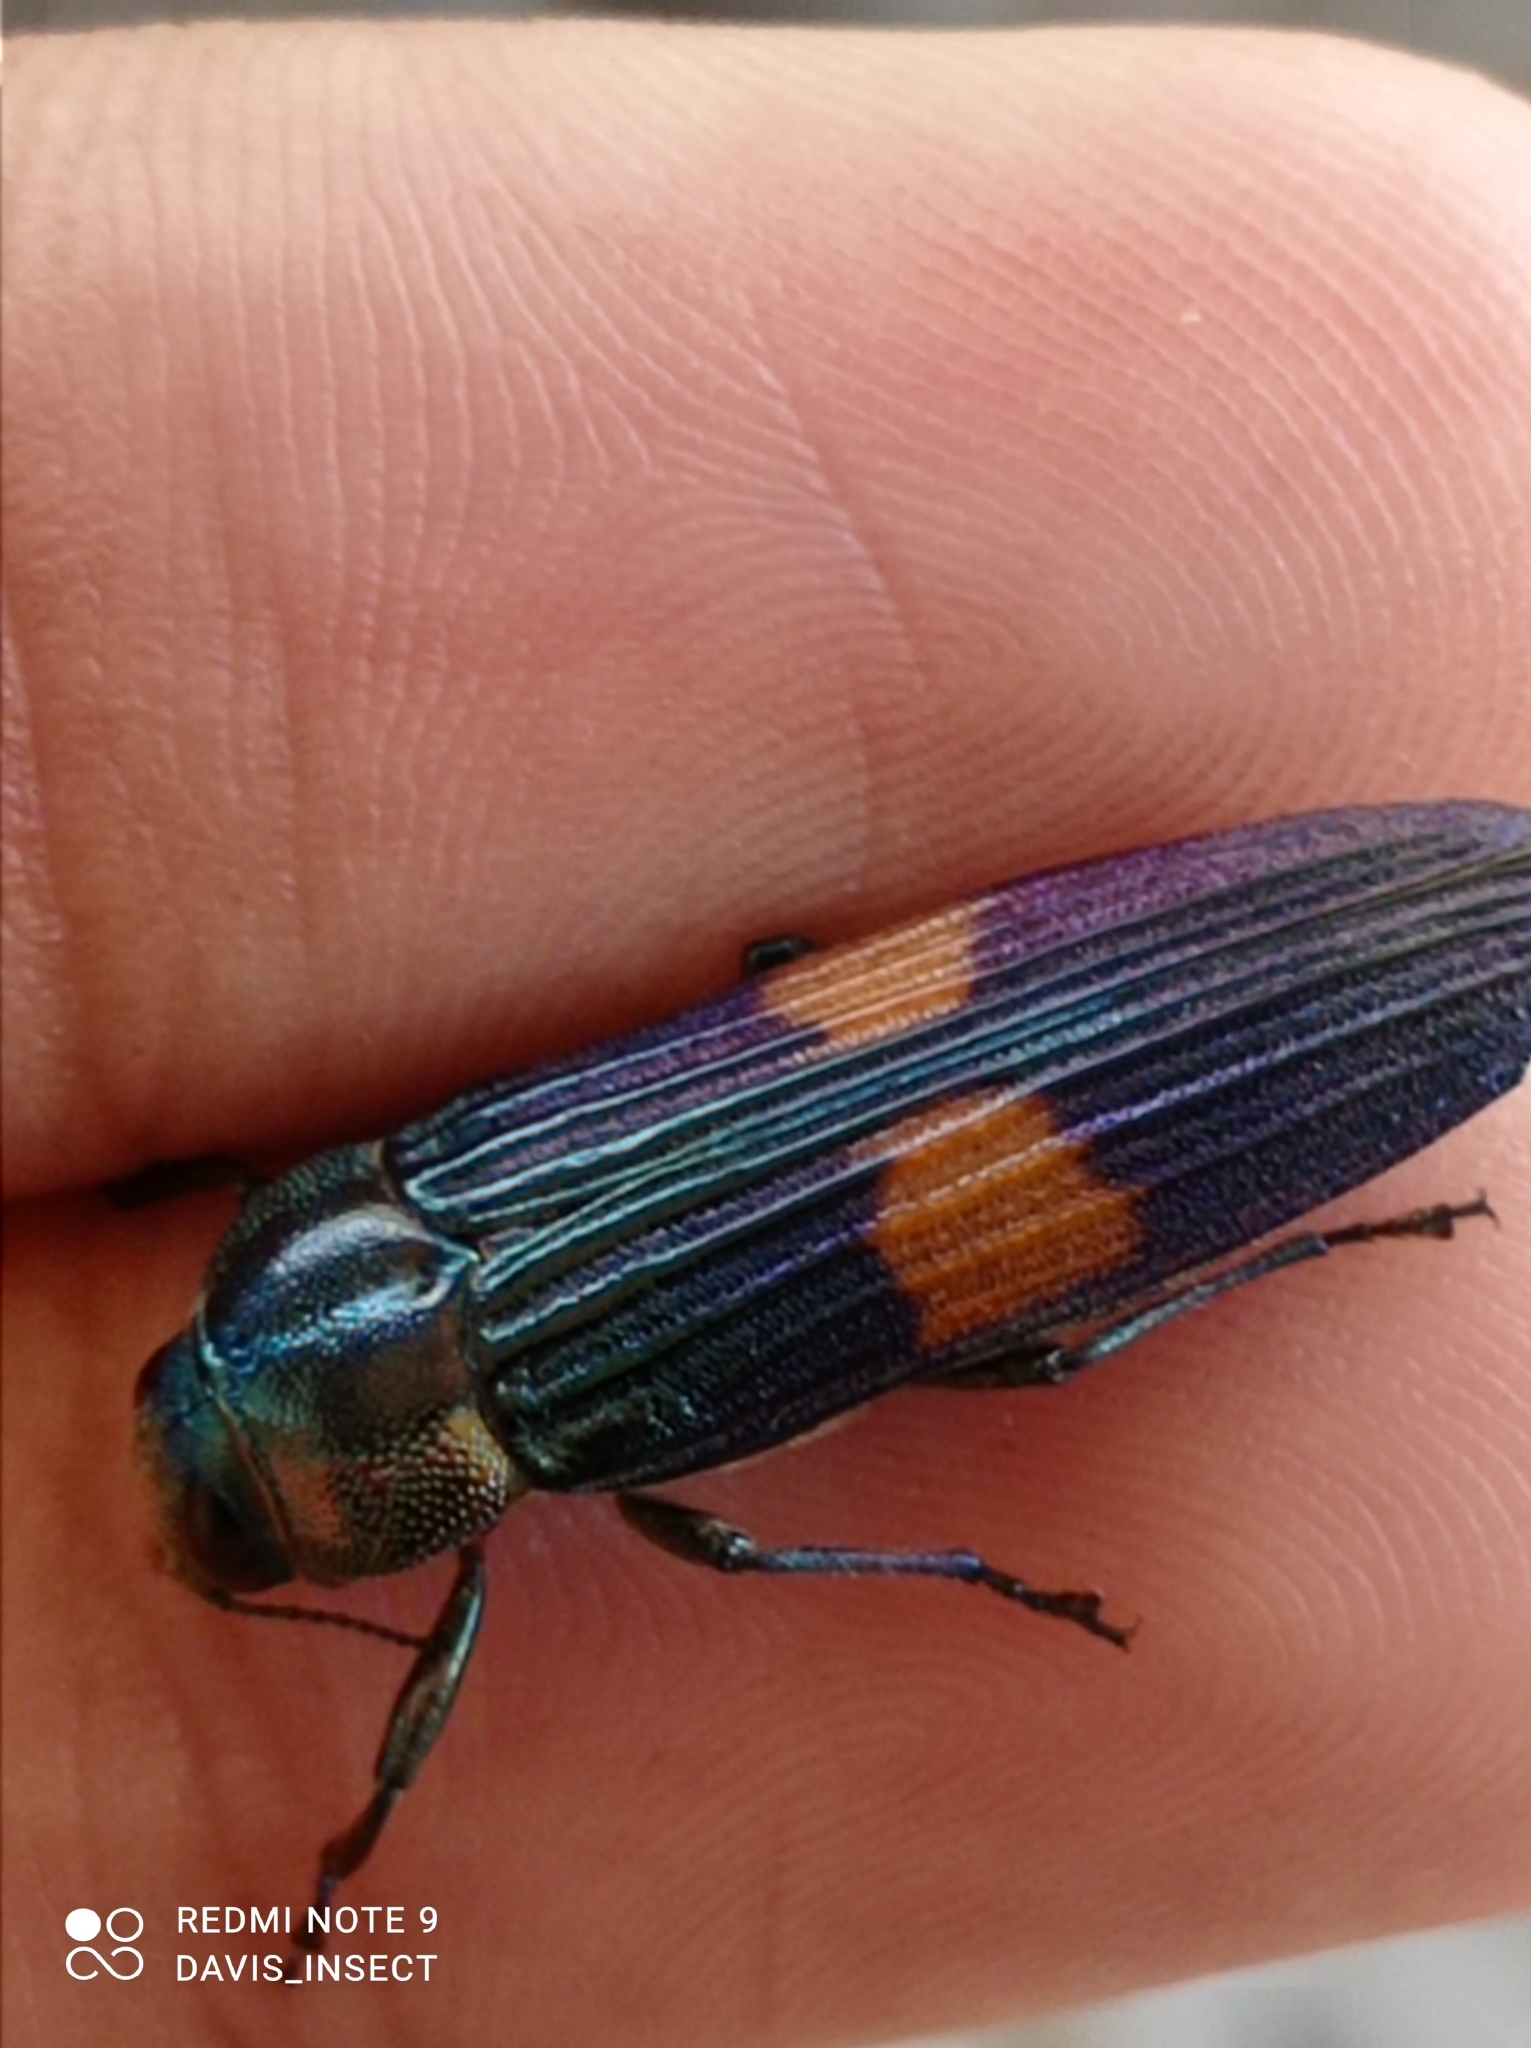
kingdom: Animalia
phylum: Arthropoda
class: Insecta
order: Coleoptera
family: Buprestidae
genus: Strigoptera
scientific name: Strigoptera bimaculata
